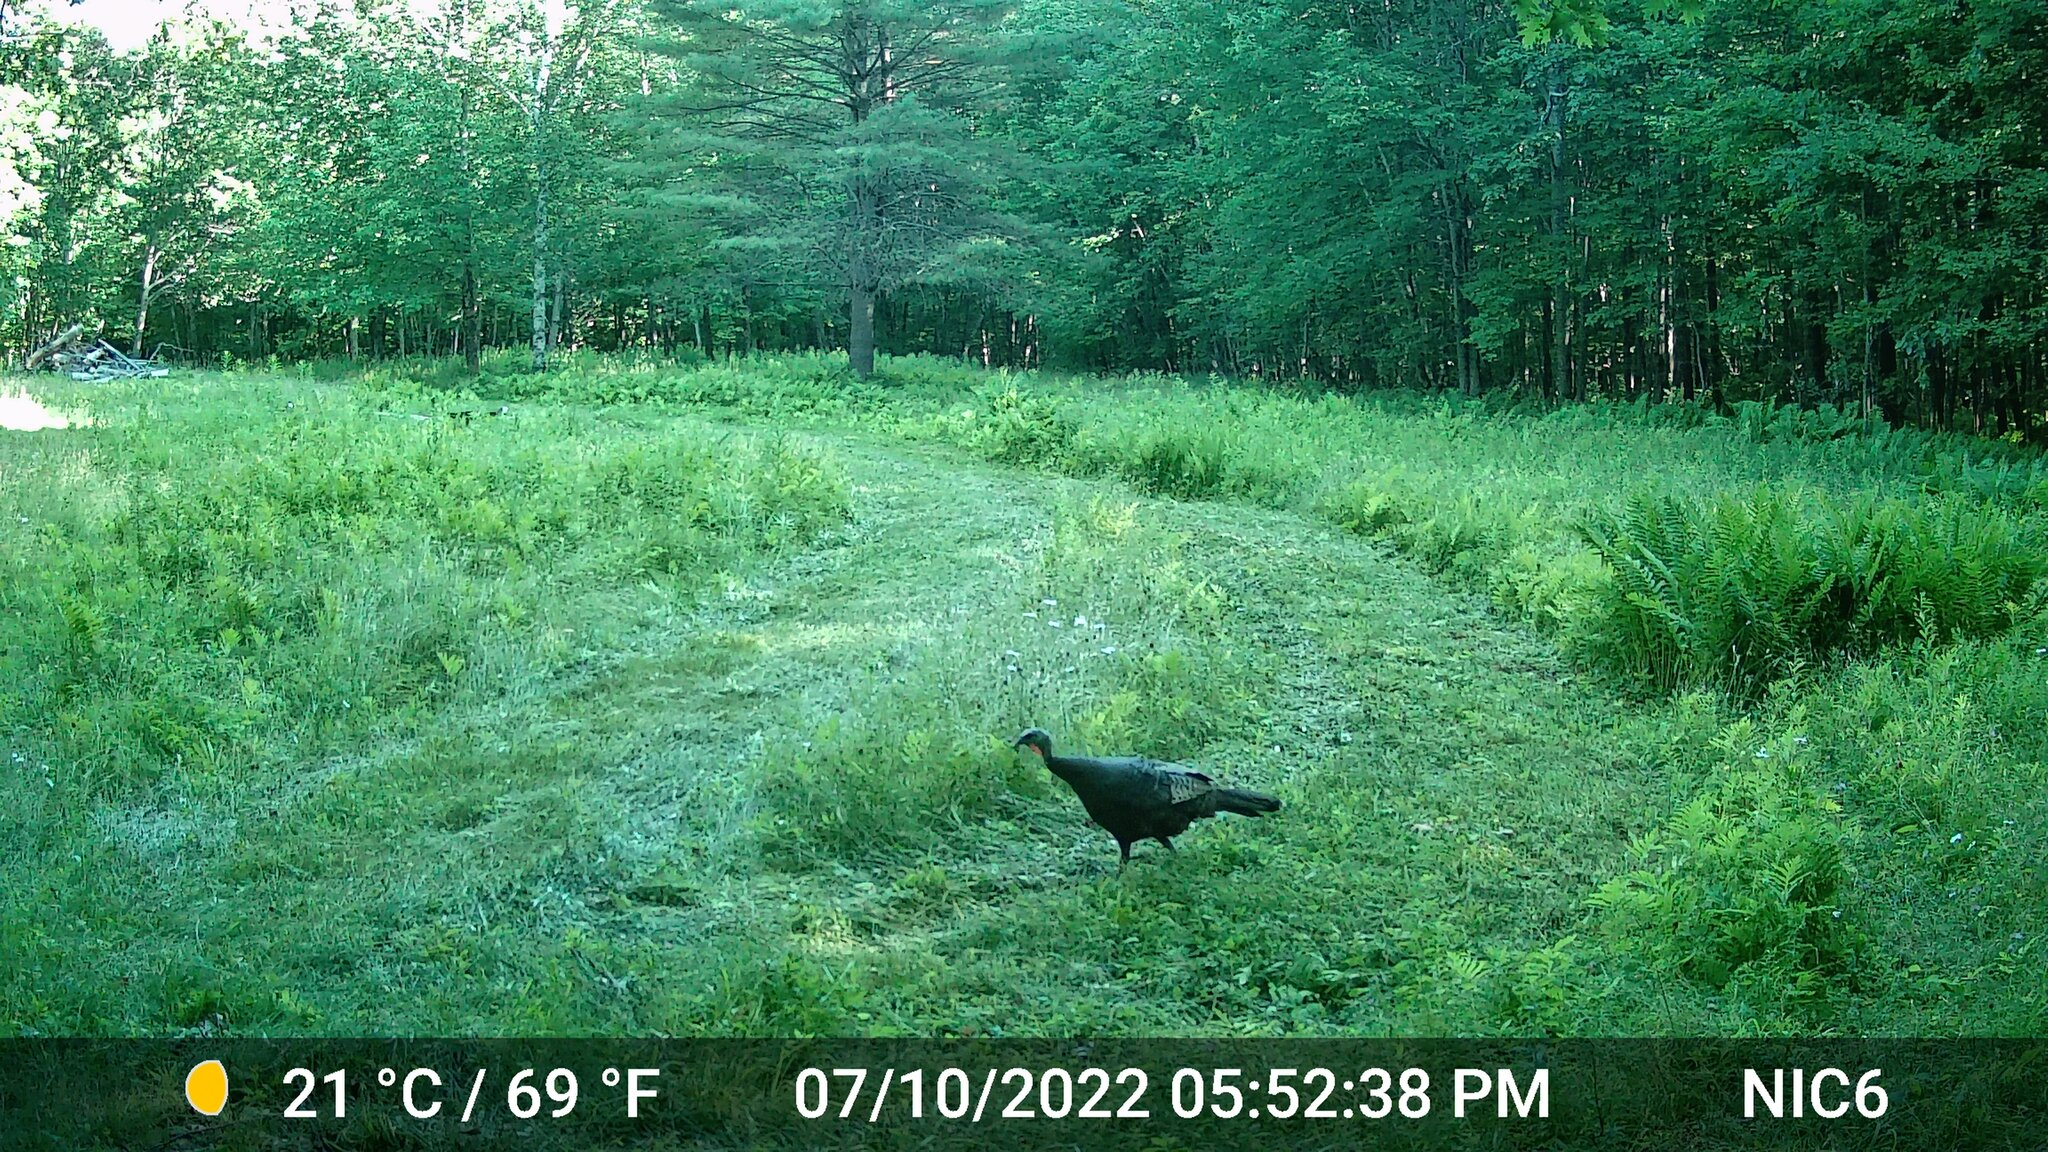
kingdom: Animalia
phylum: Chordata
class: Aves
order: Galliformes
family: Phasianidae
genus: Meleagris
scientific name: Meleagris gallopavo
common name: Wild turkey
